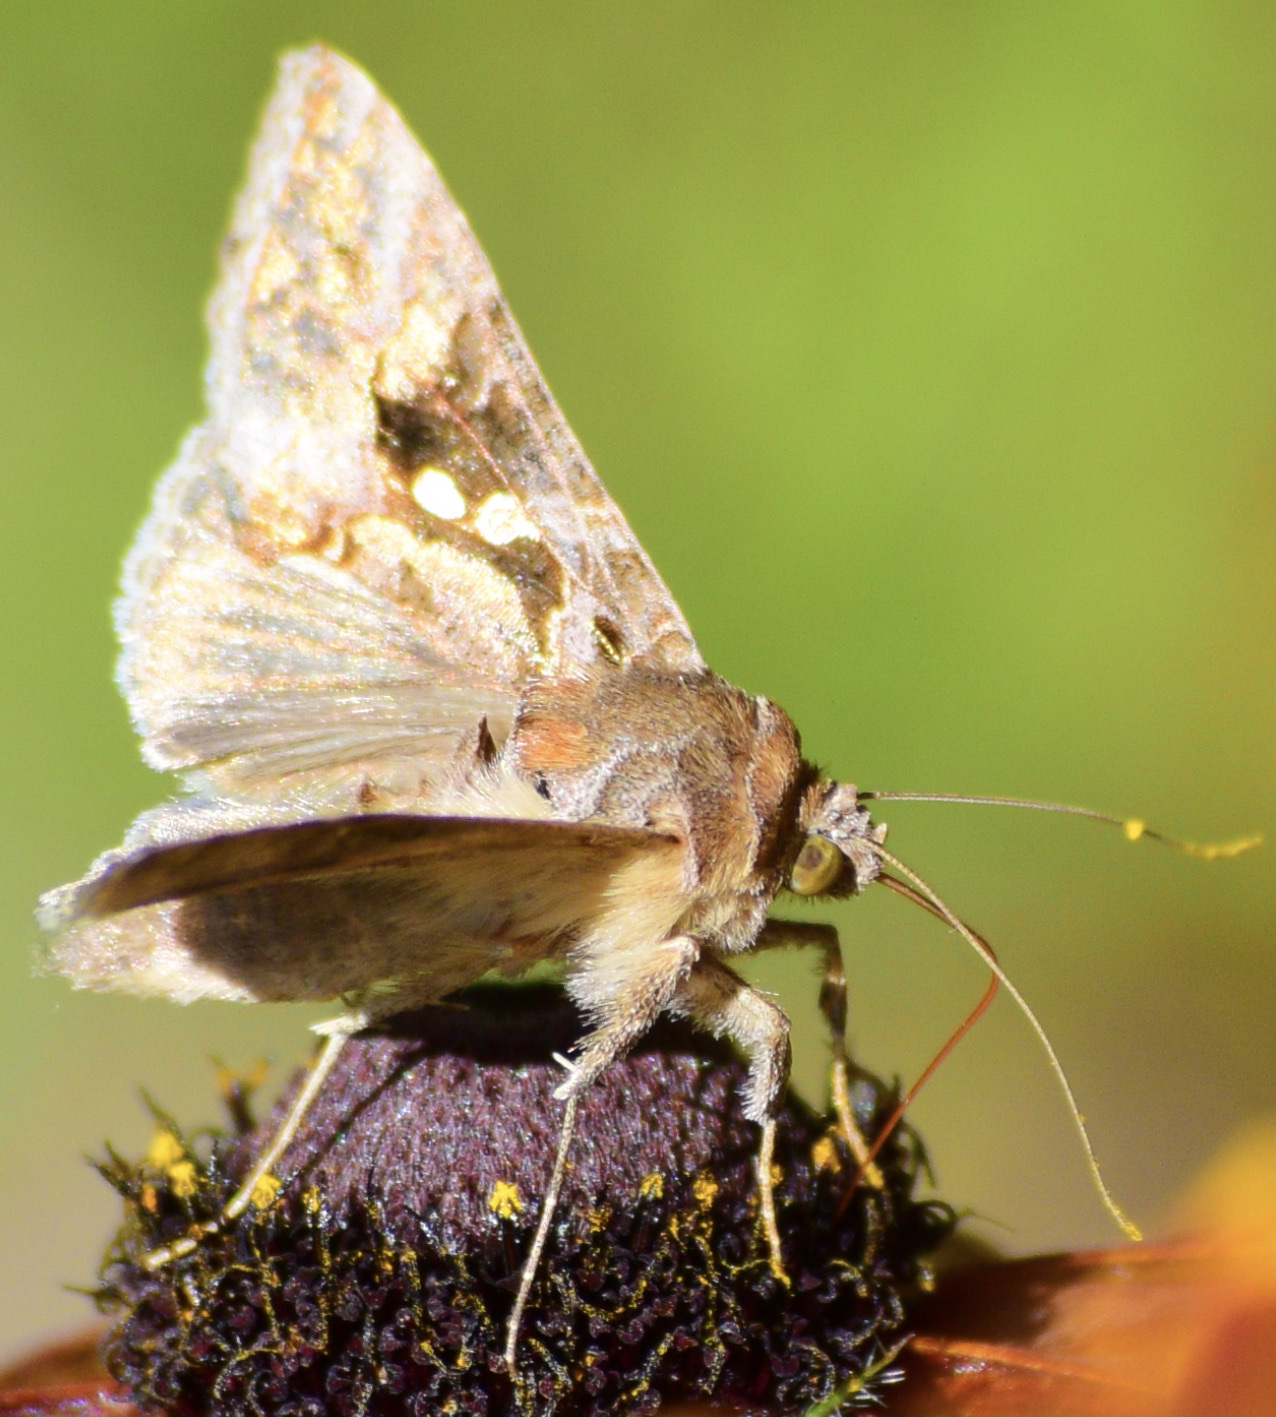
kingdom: Animalia
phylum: Arthropoda
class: Insecta
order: Lepidoptera
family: Noctuidae
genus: Chrysodeixis
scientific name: Chrysodeixis includens
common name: Cutworm moth
